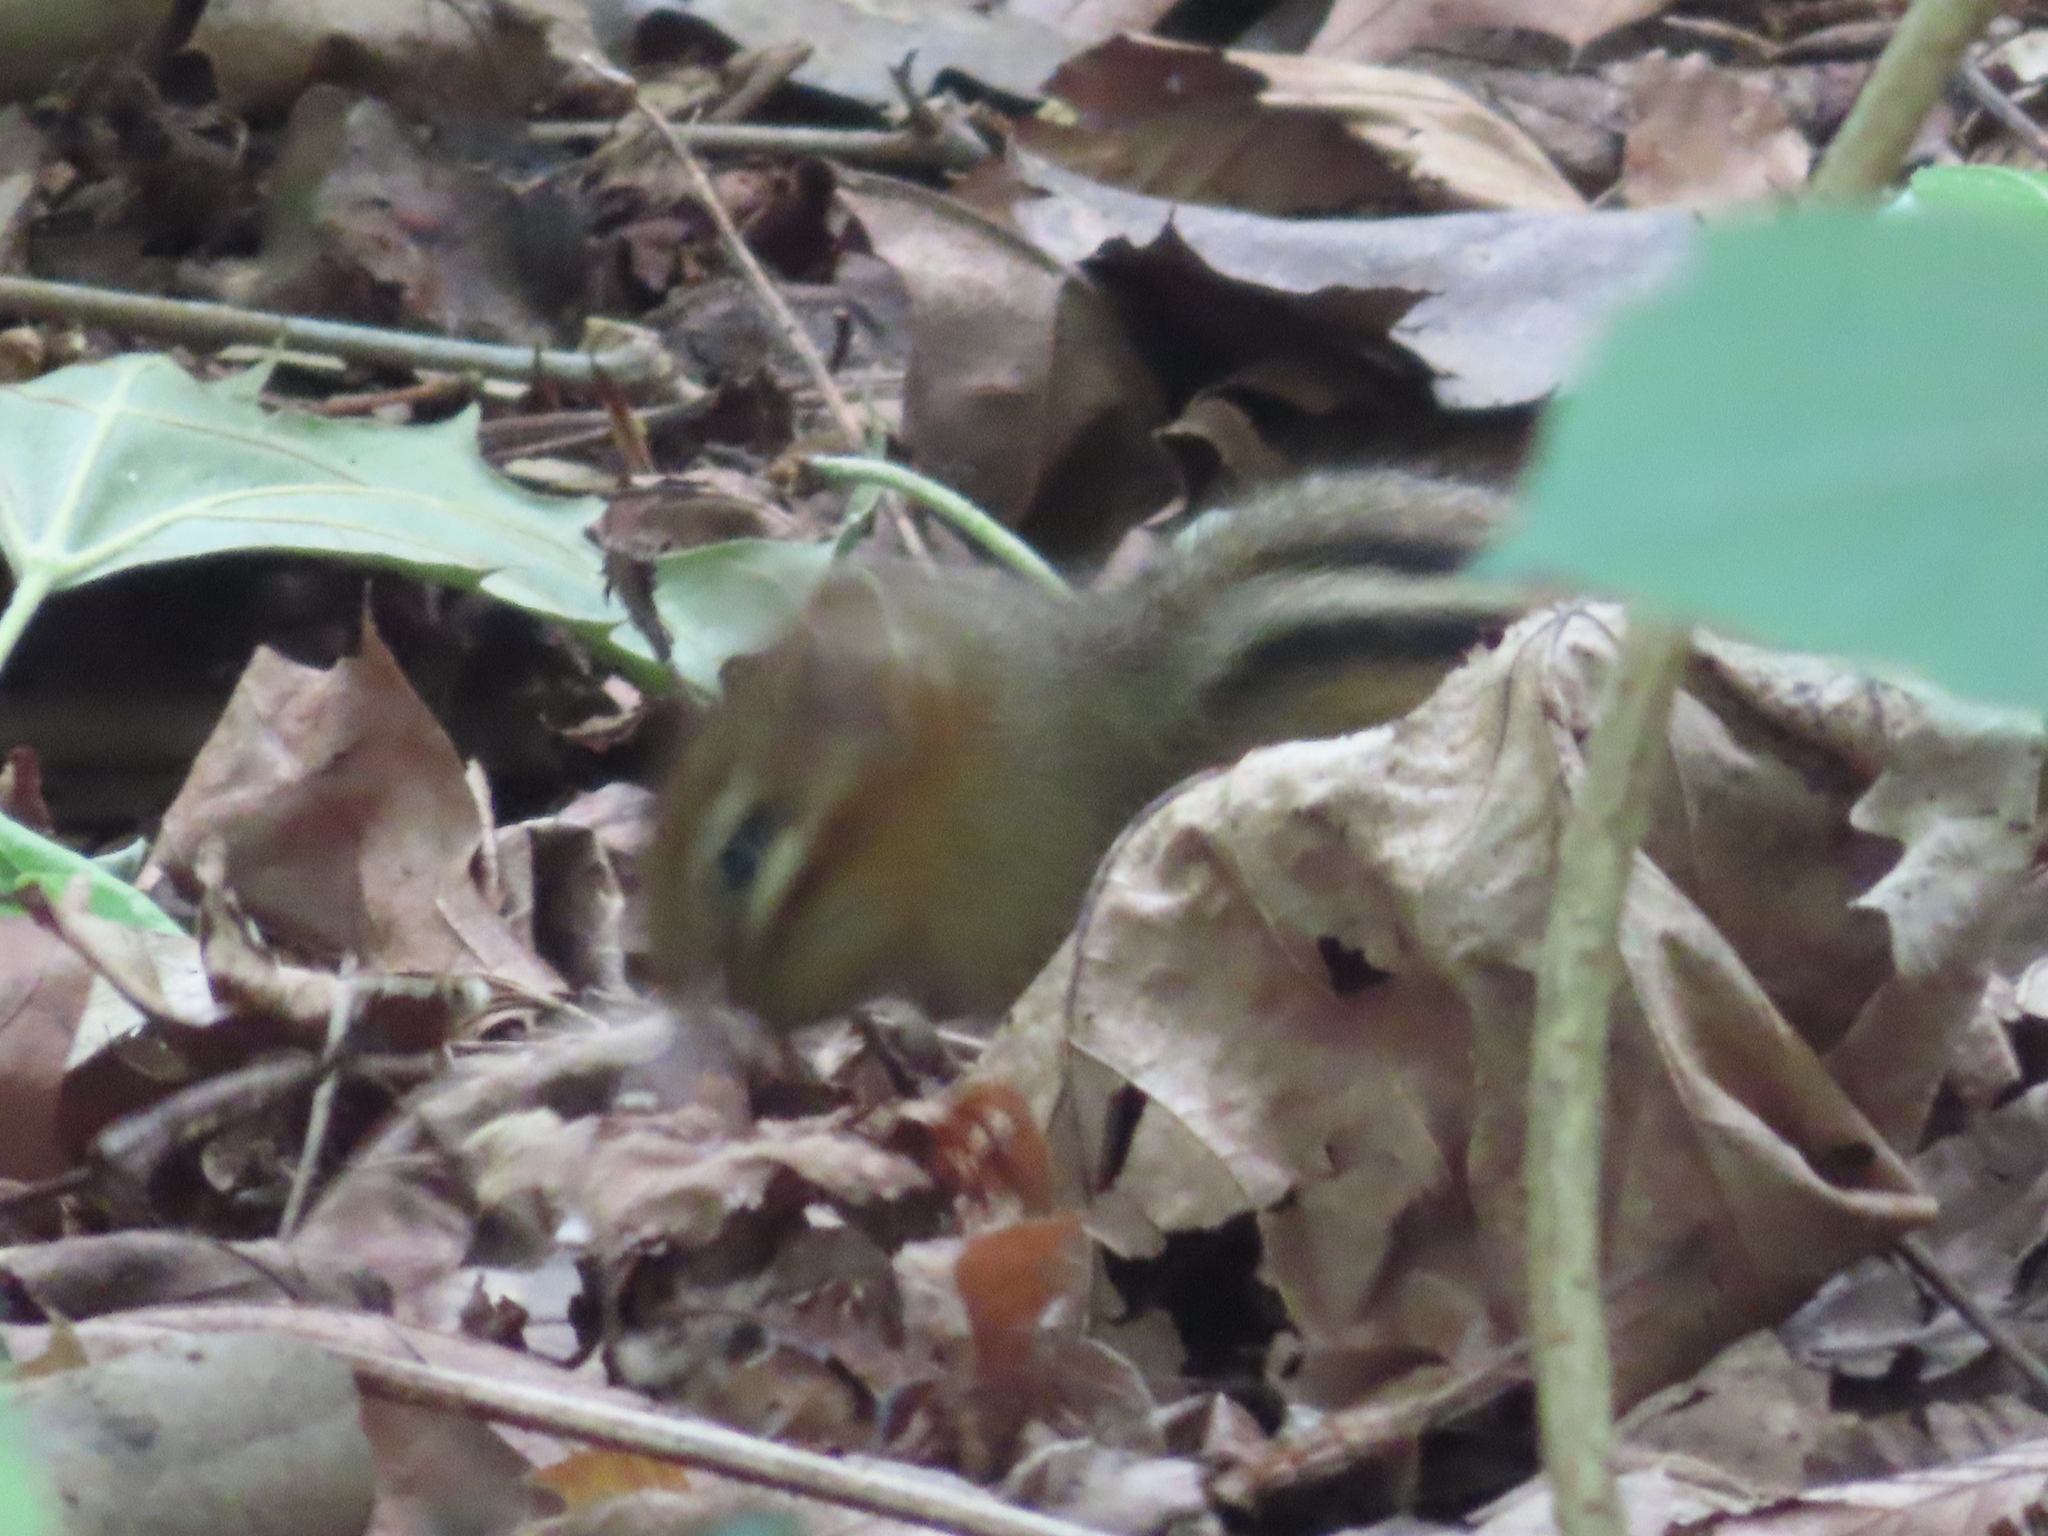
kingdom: Animalia
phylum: Chordata
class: Mammalia
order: Rodentia
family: Sciuridae
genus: Tamias
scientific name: Tamias striatus
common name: Eastern chipmunk
